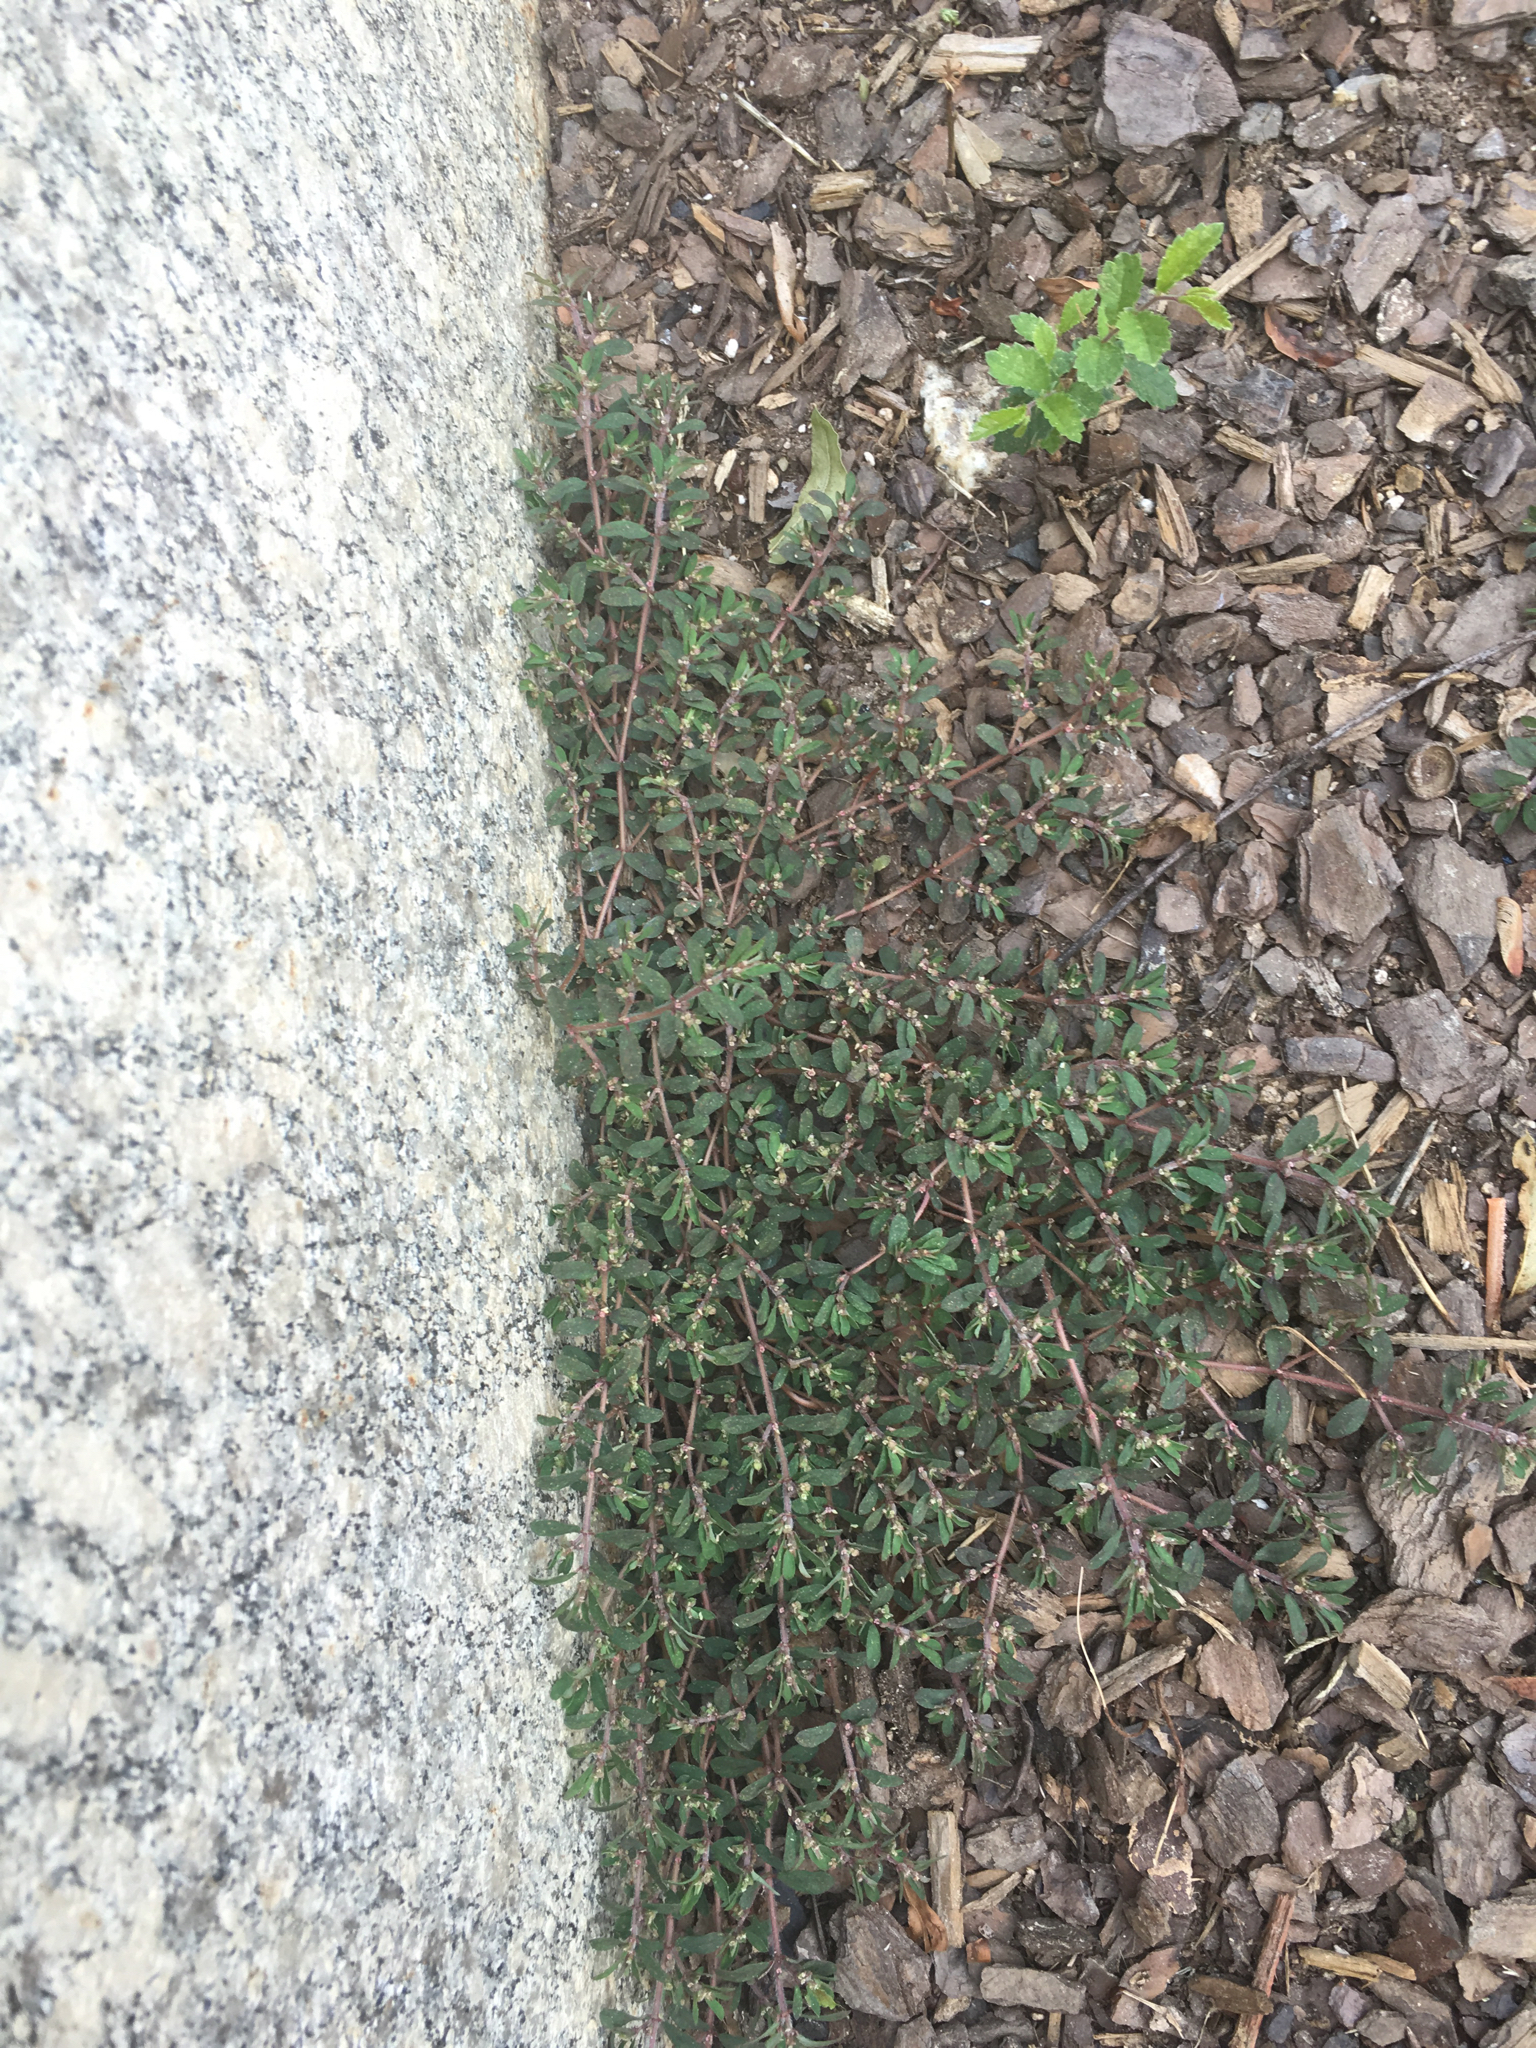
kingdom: Plantae
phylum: Tracheophyta
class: Magnoliopsida
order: Malpighiales
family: Euphorbiaceae
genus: Euphorbia
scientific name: Euphorbia maculata
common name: Spotted spurge
